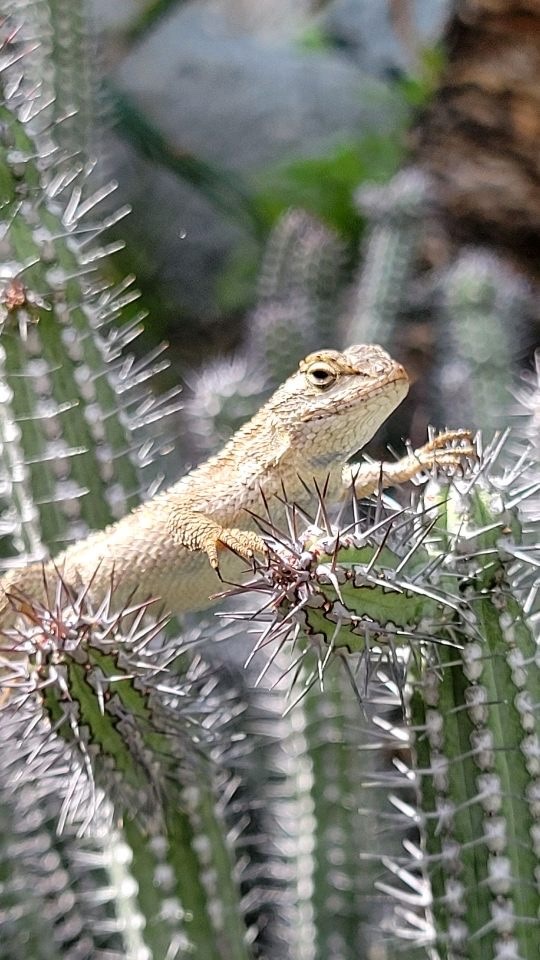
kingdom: Animalia
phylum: Chordata
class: Squamata
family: Phrynosomatidae
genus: Sceloporus
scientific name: Sceloporus occidentalis
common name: Western fence lizard
